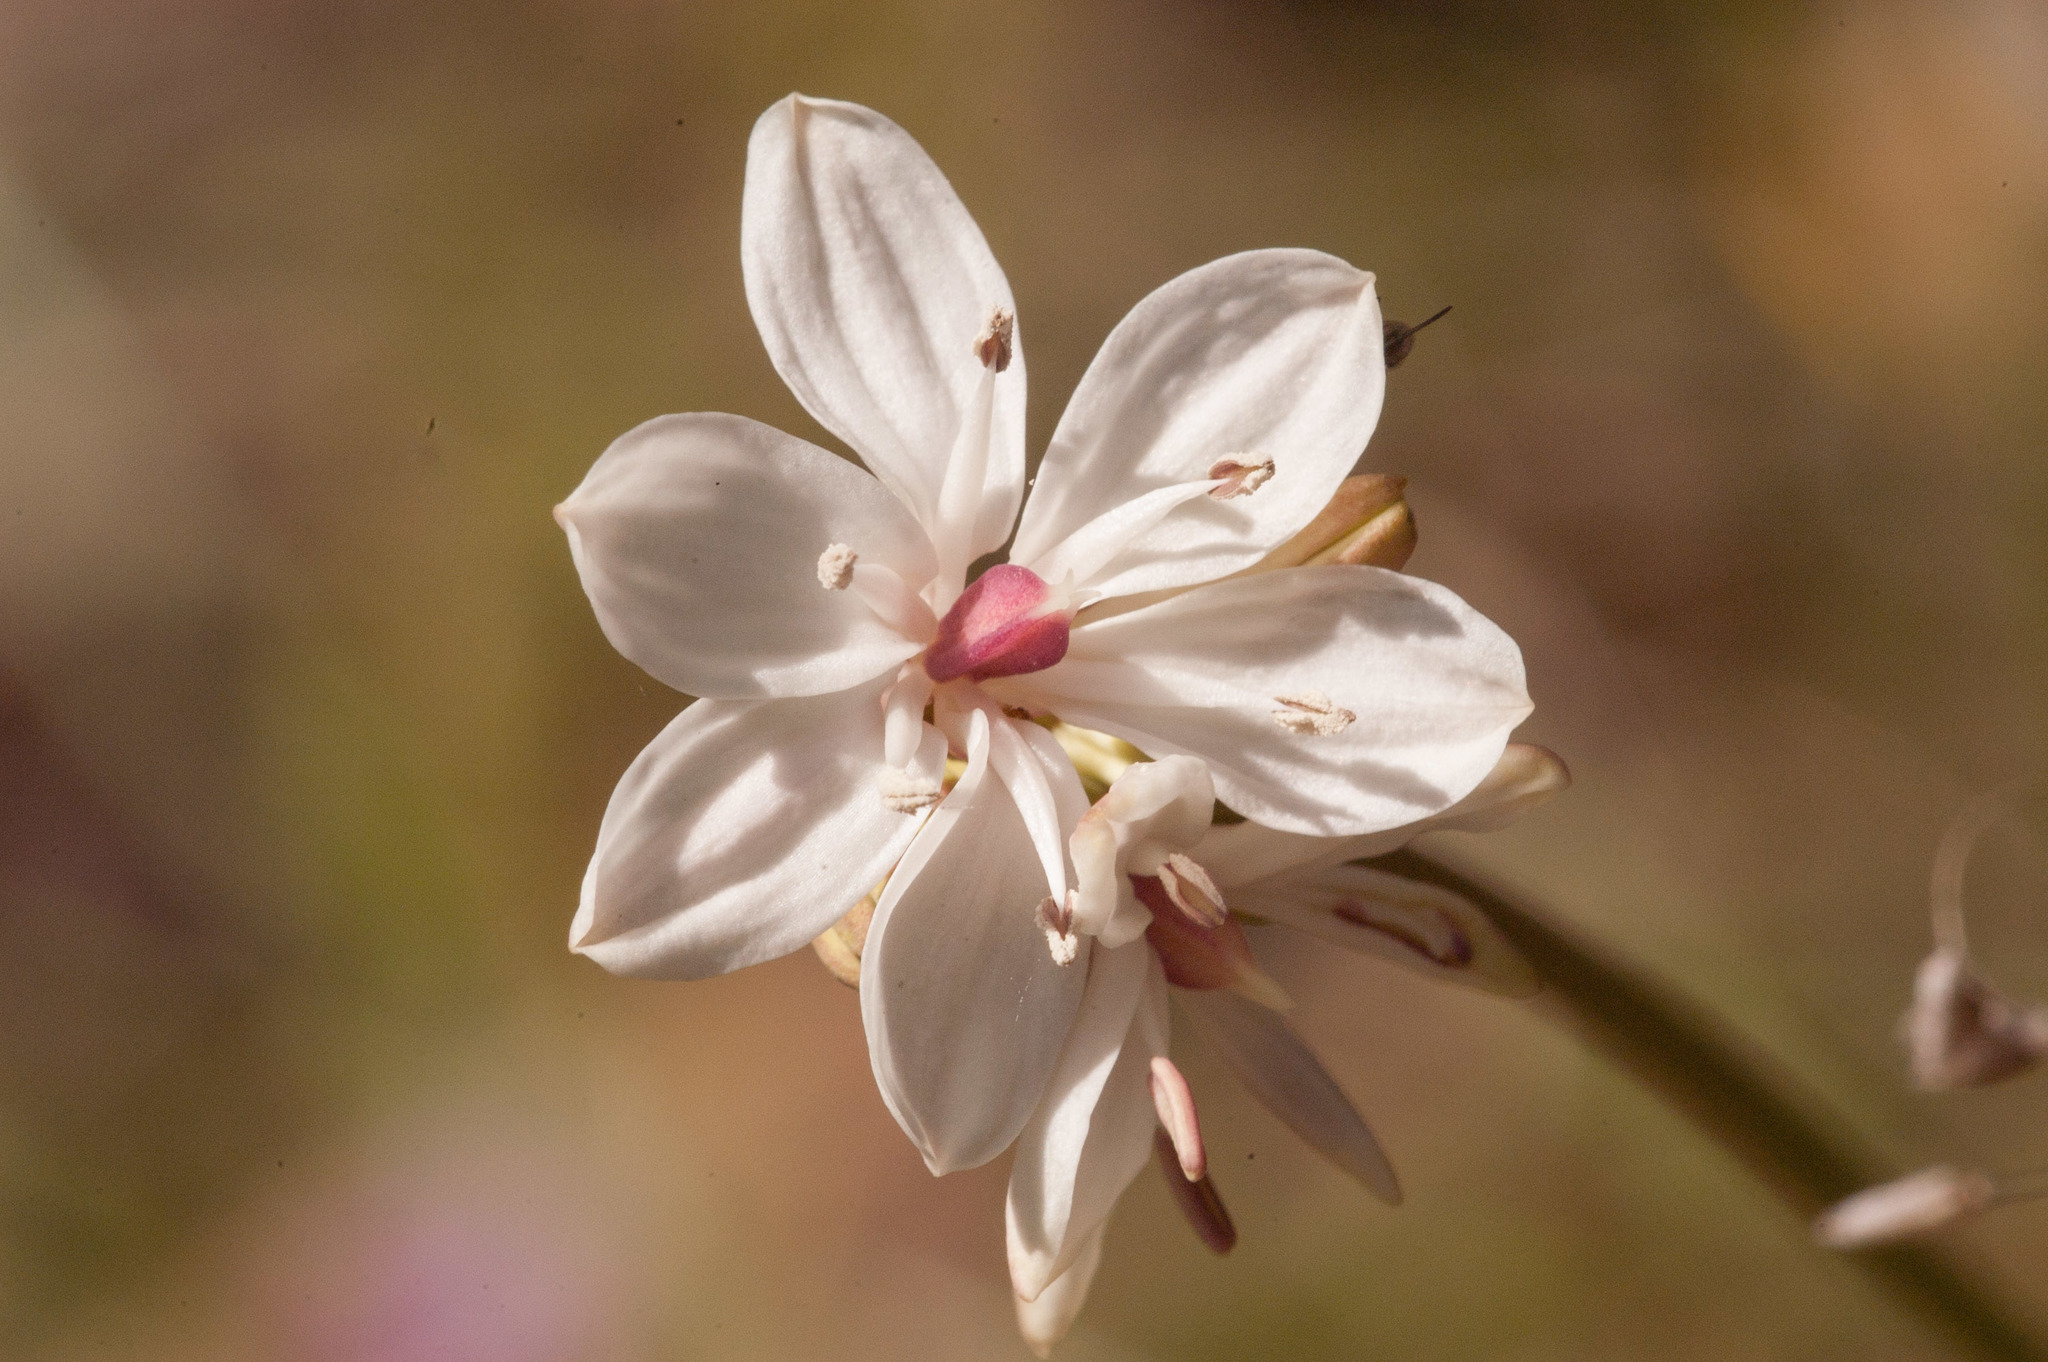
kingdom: Plantae
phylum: Tracheophyta
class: Liliopsida
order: Liliales
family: Colchicaceae
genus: Burchardia
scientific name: Burchardia umbellata
